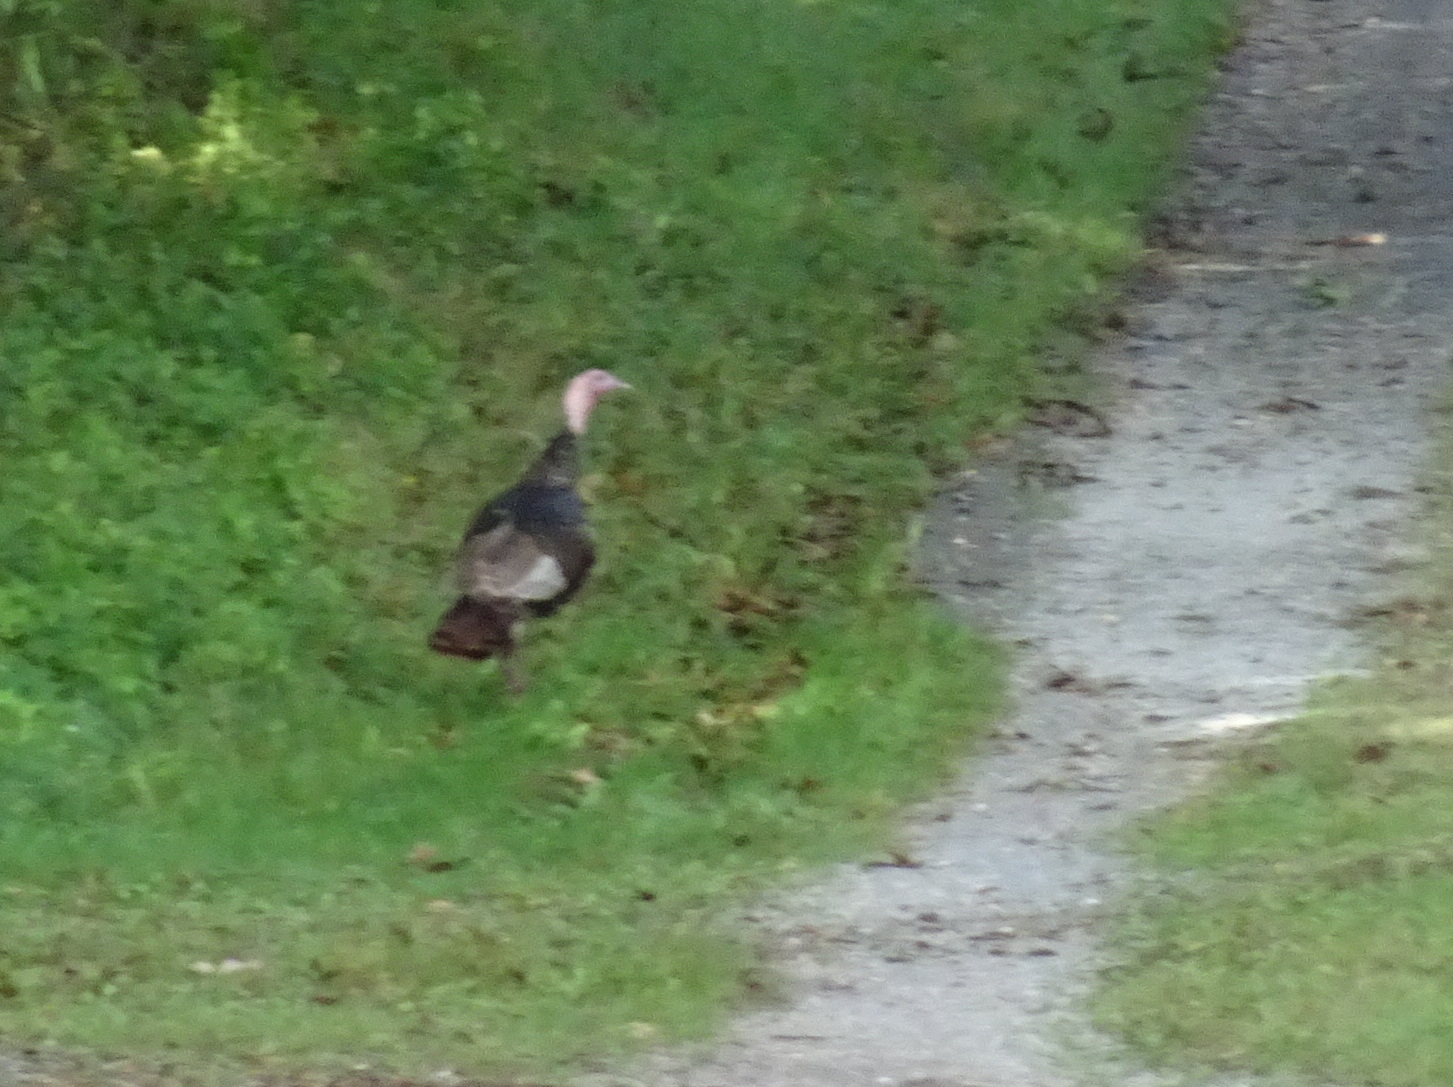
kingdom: Animalia
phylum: Chordata
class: Aves
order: Galliformes
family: Phasianidae
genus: Meleagris
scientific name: Meleagris gallopavo
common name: Wild turkey
